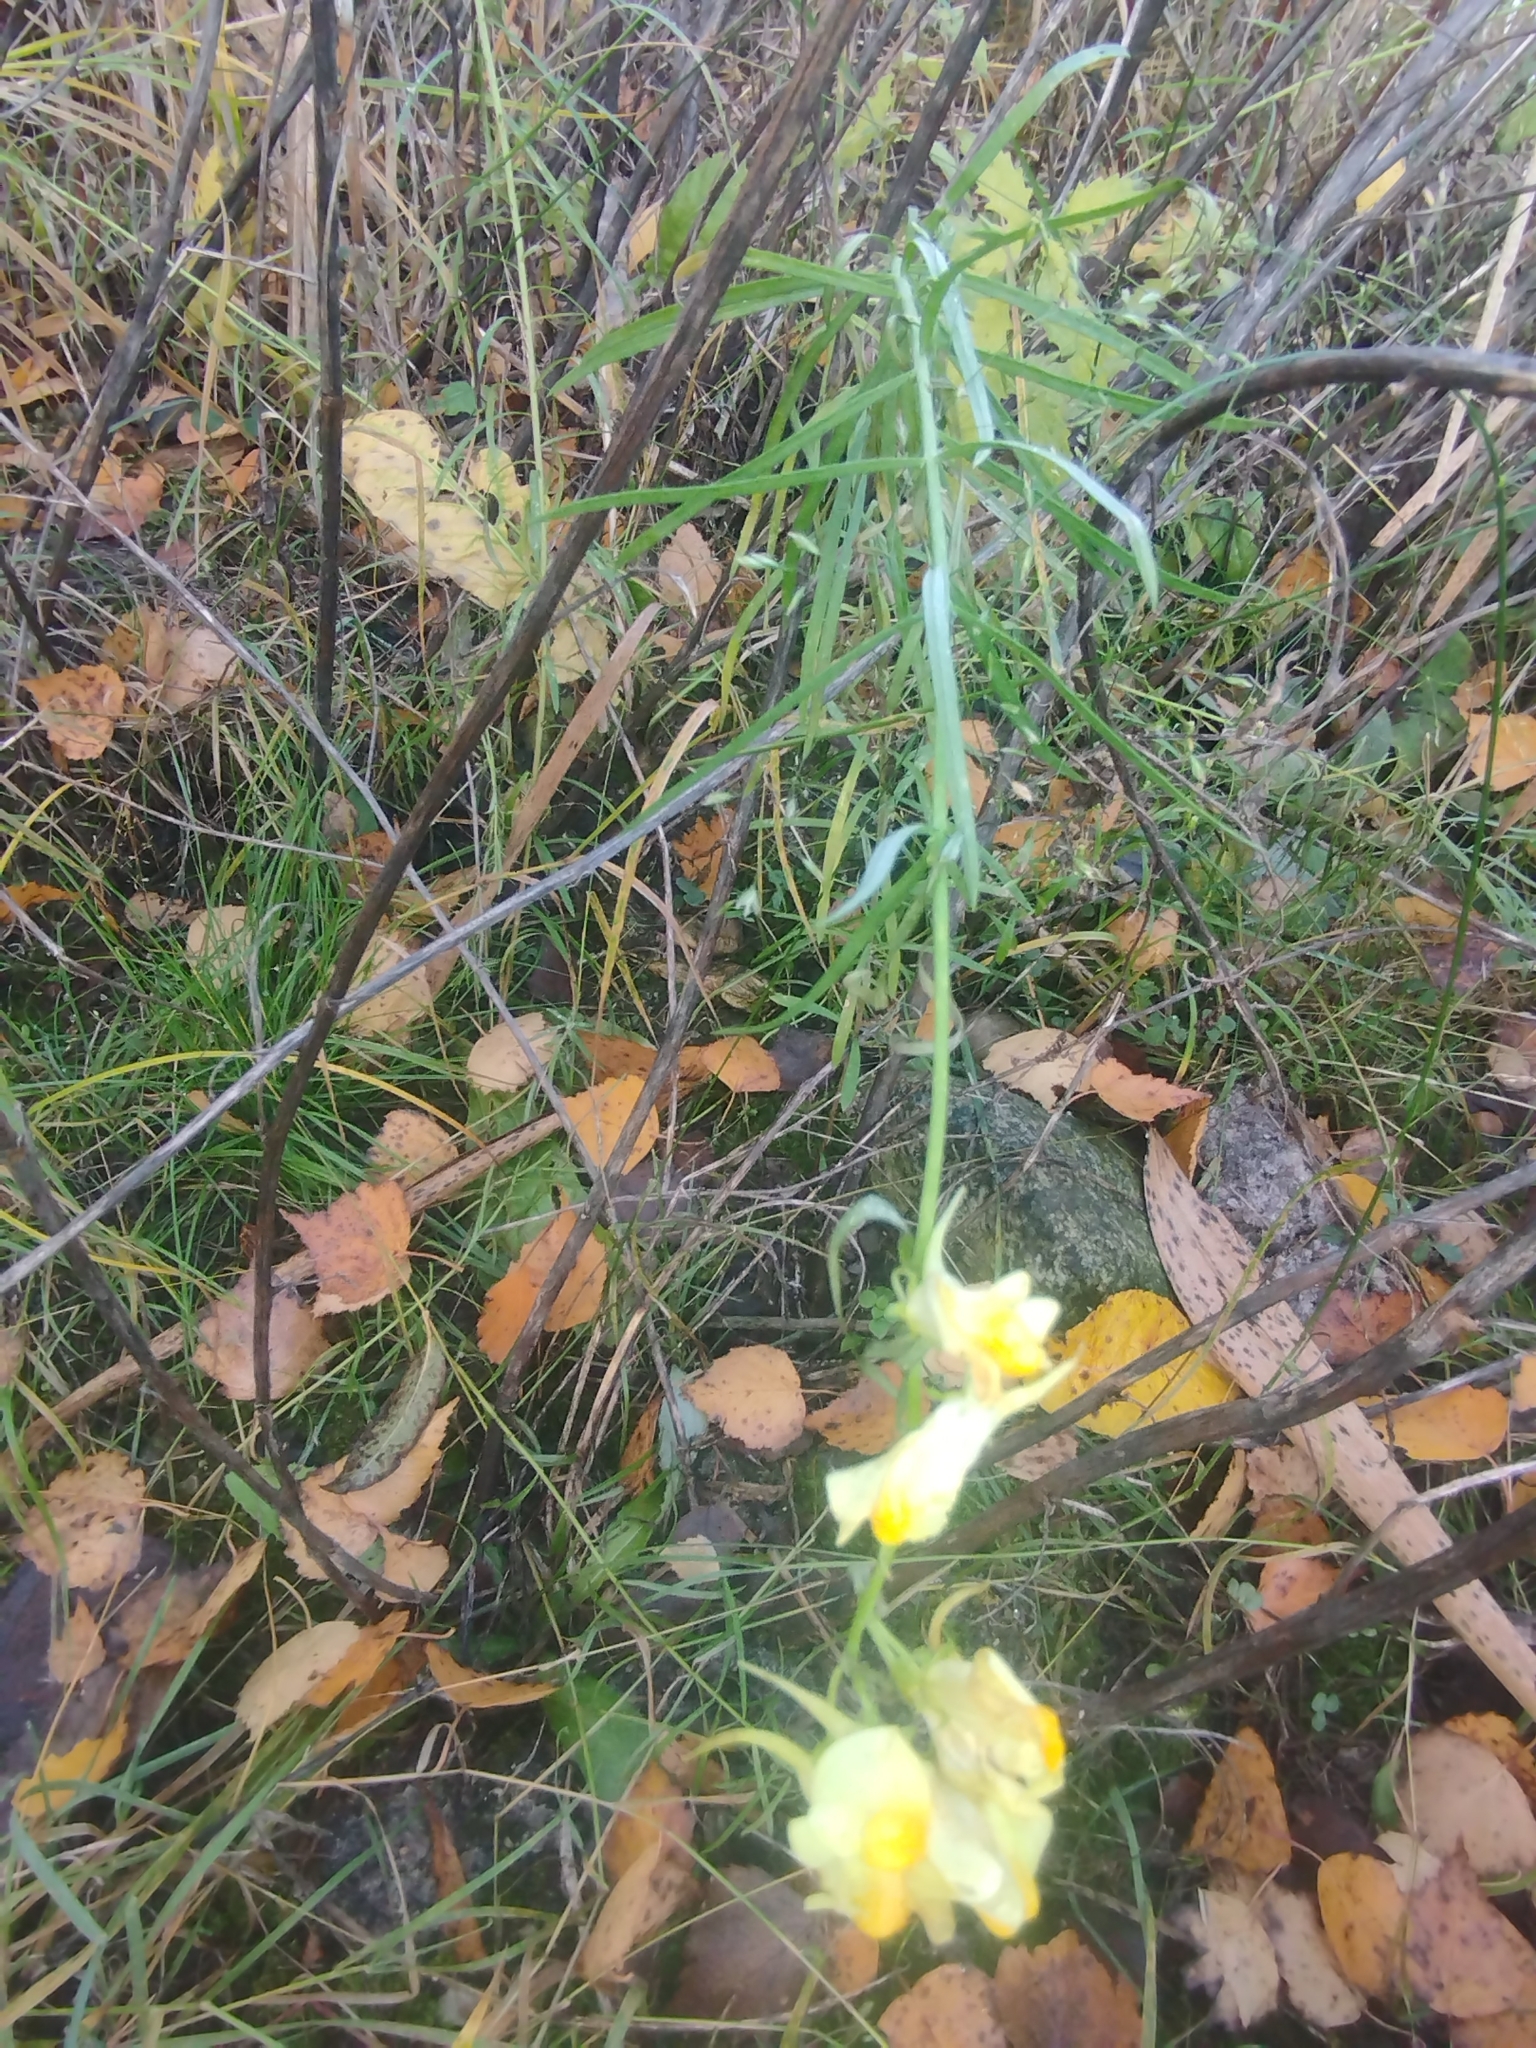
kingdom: Plantae
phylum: Tracheophyta
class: Magnoliopsida
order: Lamiales
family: Plantaginaceae
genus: Linaria
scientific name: Linaria vulgaris
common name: Butter and eggs
